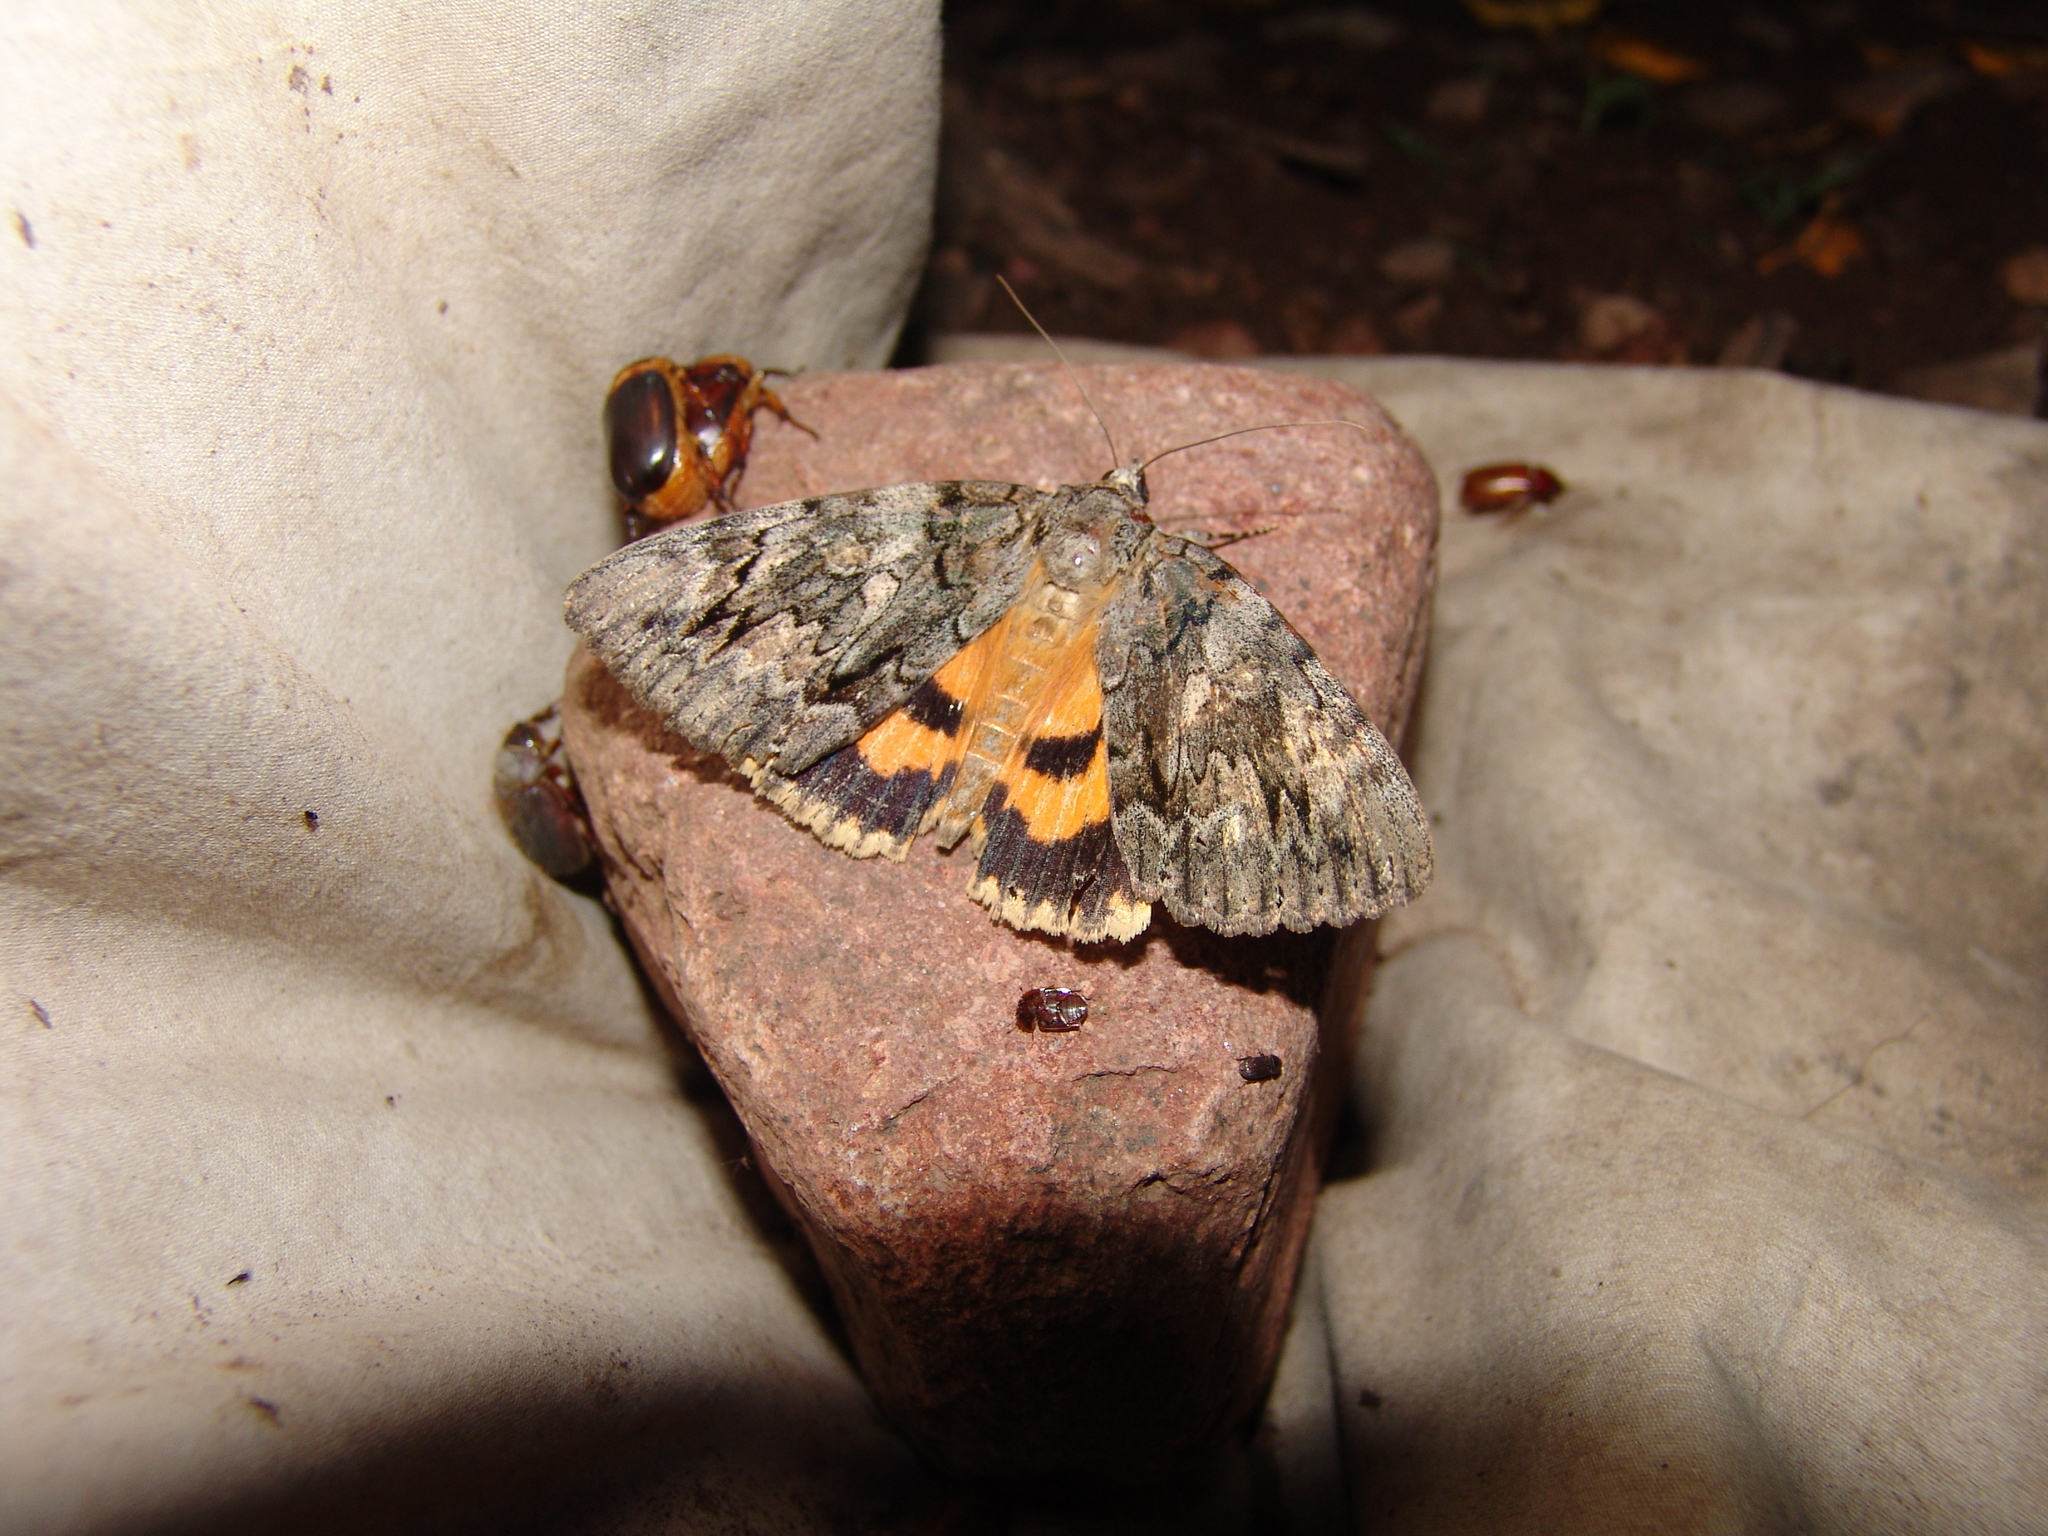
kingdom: Animalia
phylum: Arthropoda
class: Insecta
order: Lepidoptera
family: Erebidae
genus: Catocala
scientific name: Catocala neogama
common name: Bride underwing
